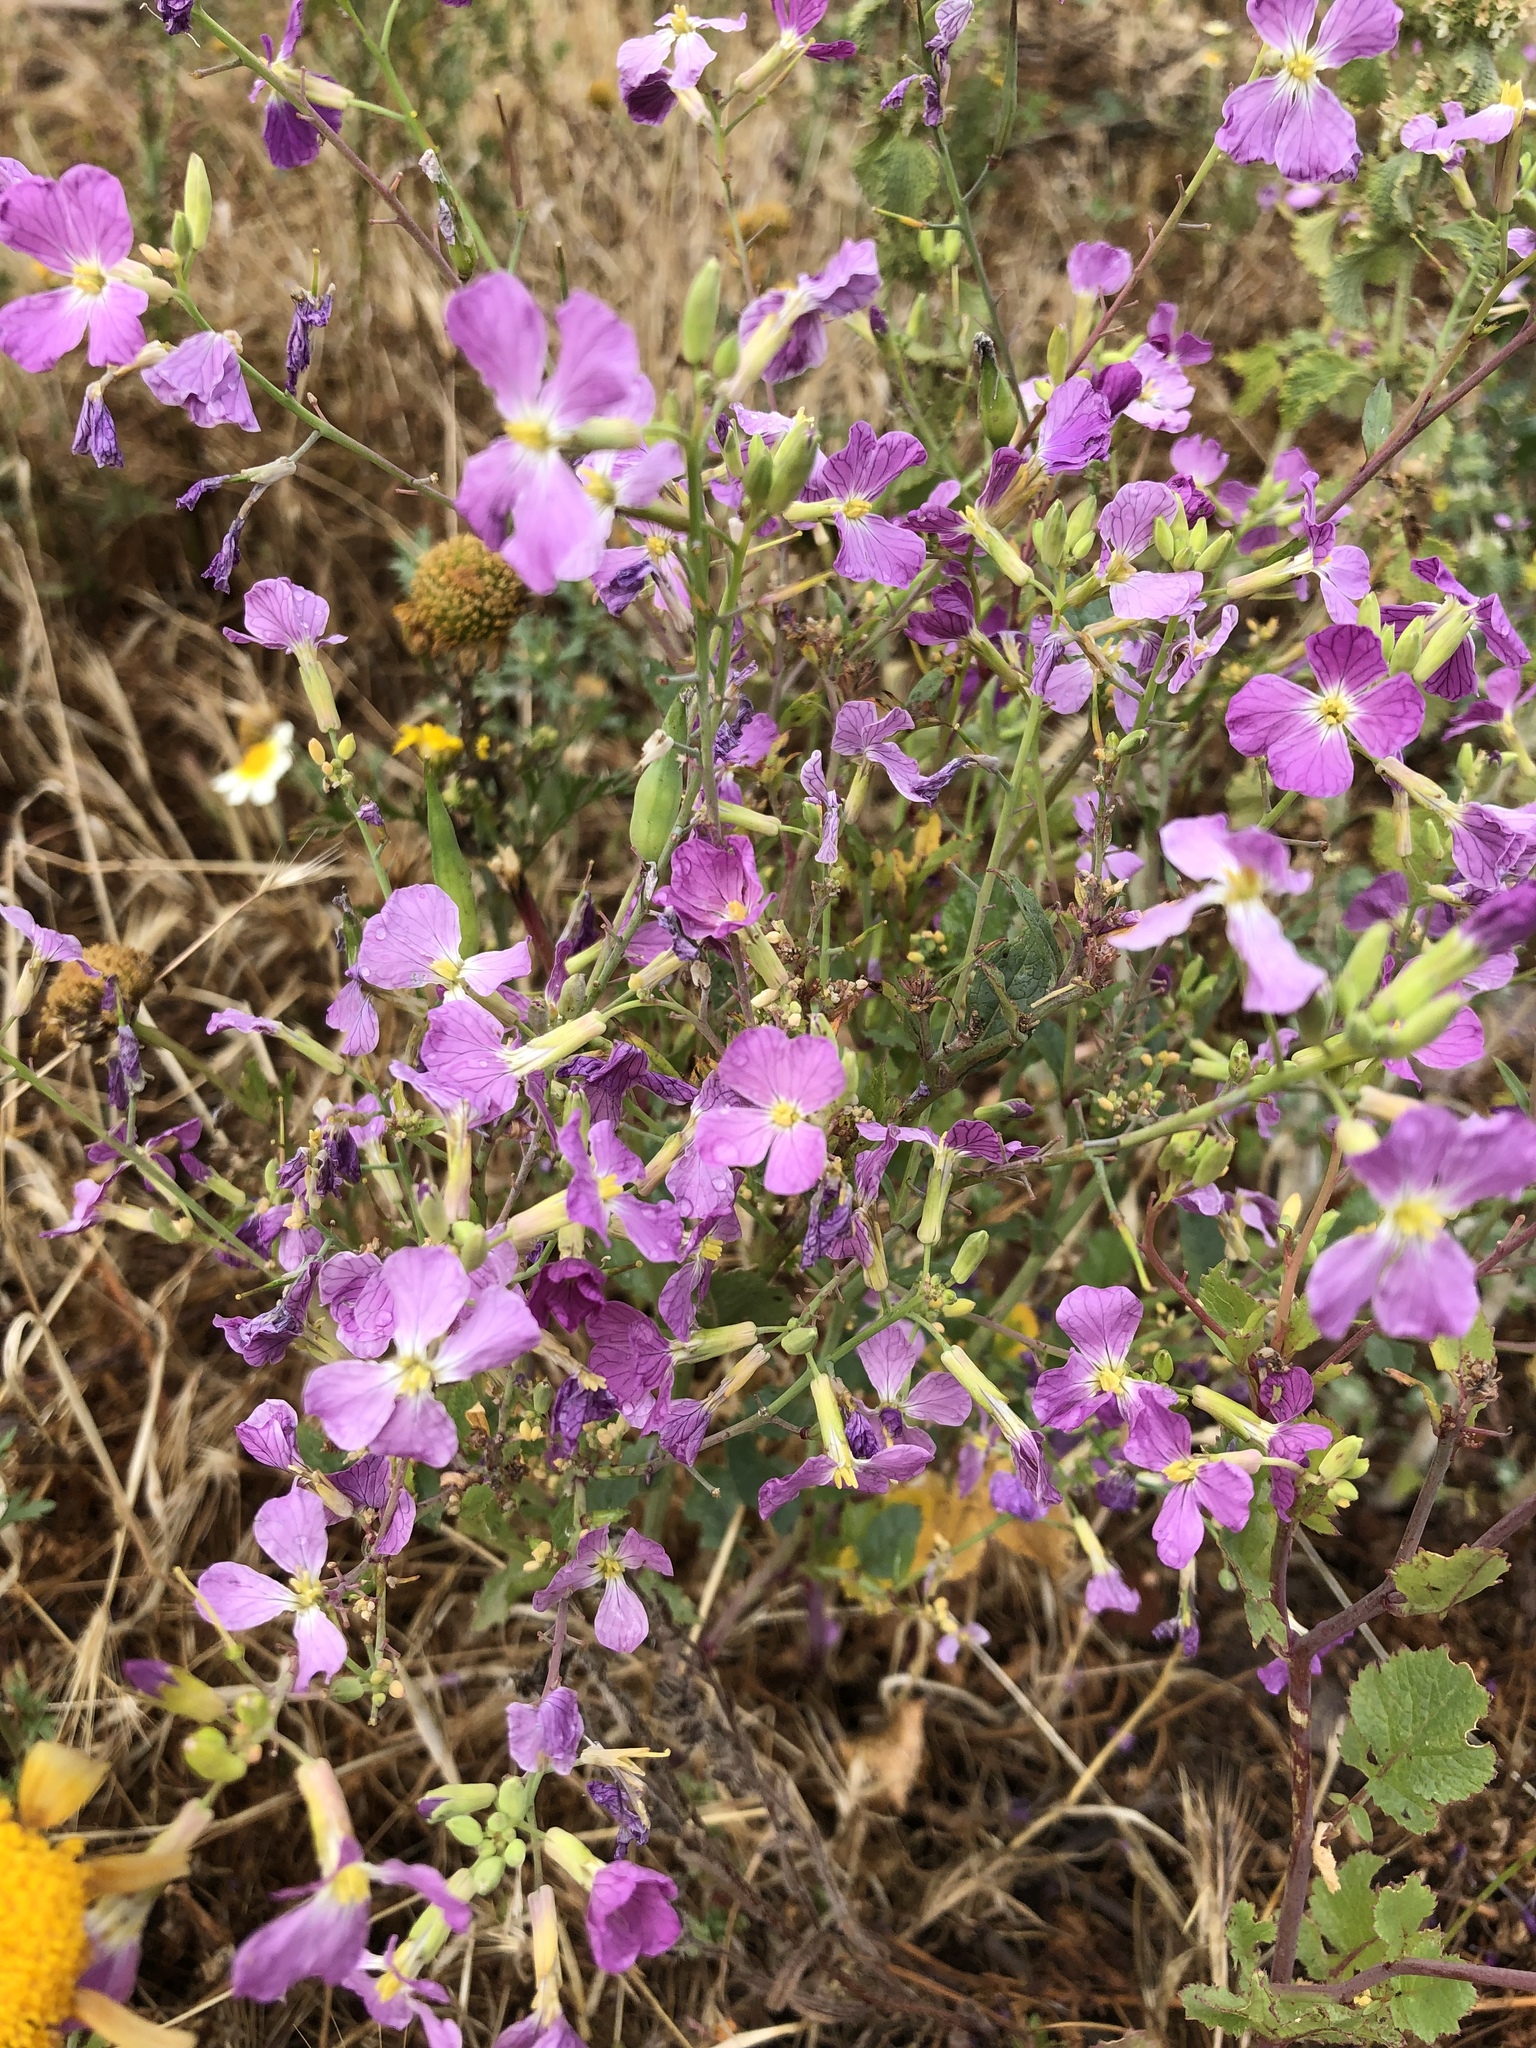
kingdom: Plantae
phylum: Tracheophyta
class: Magnoliopsida
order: Brassicales
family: Brassicaceae
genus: Raphanus
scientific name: Raphanus sativus
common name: Cultivated radish
